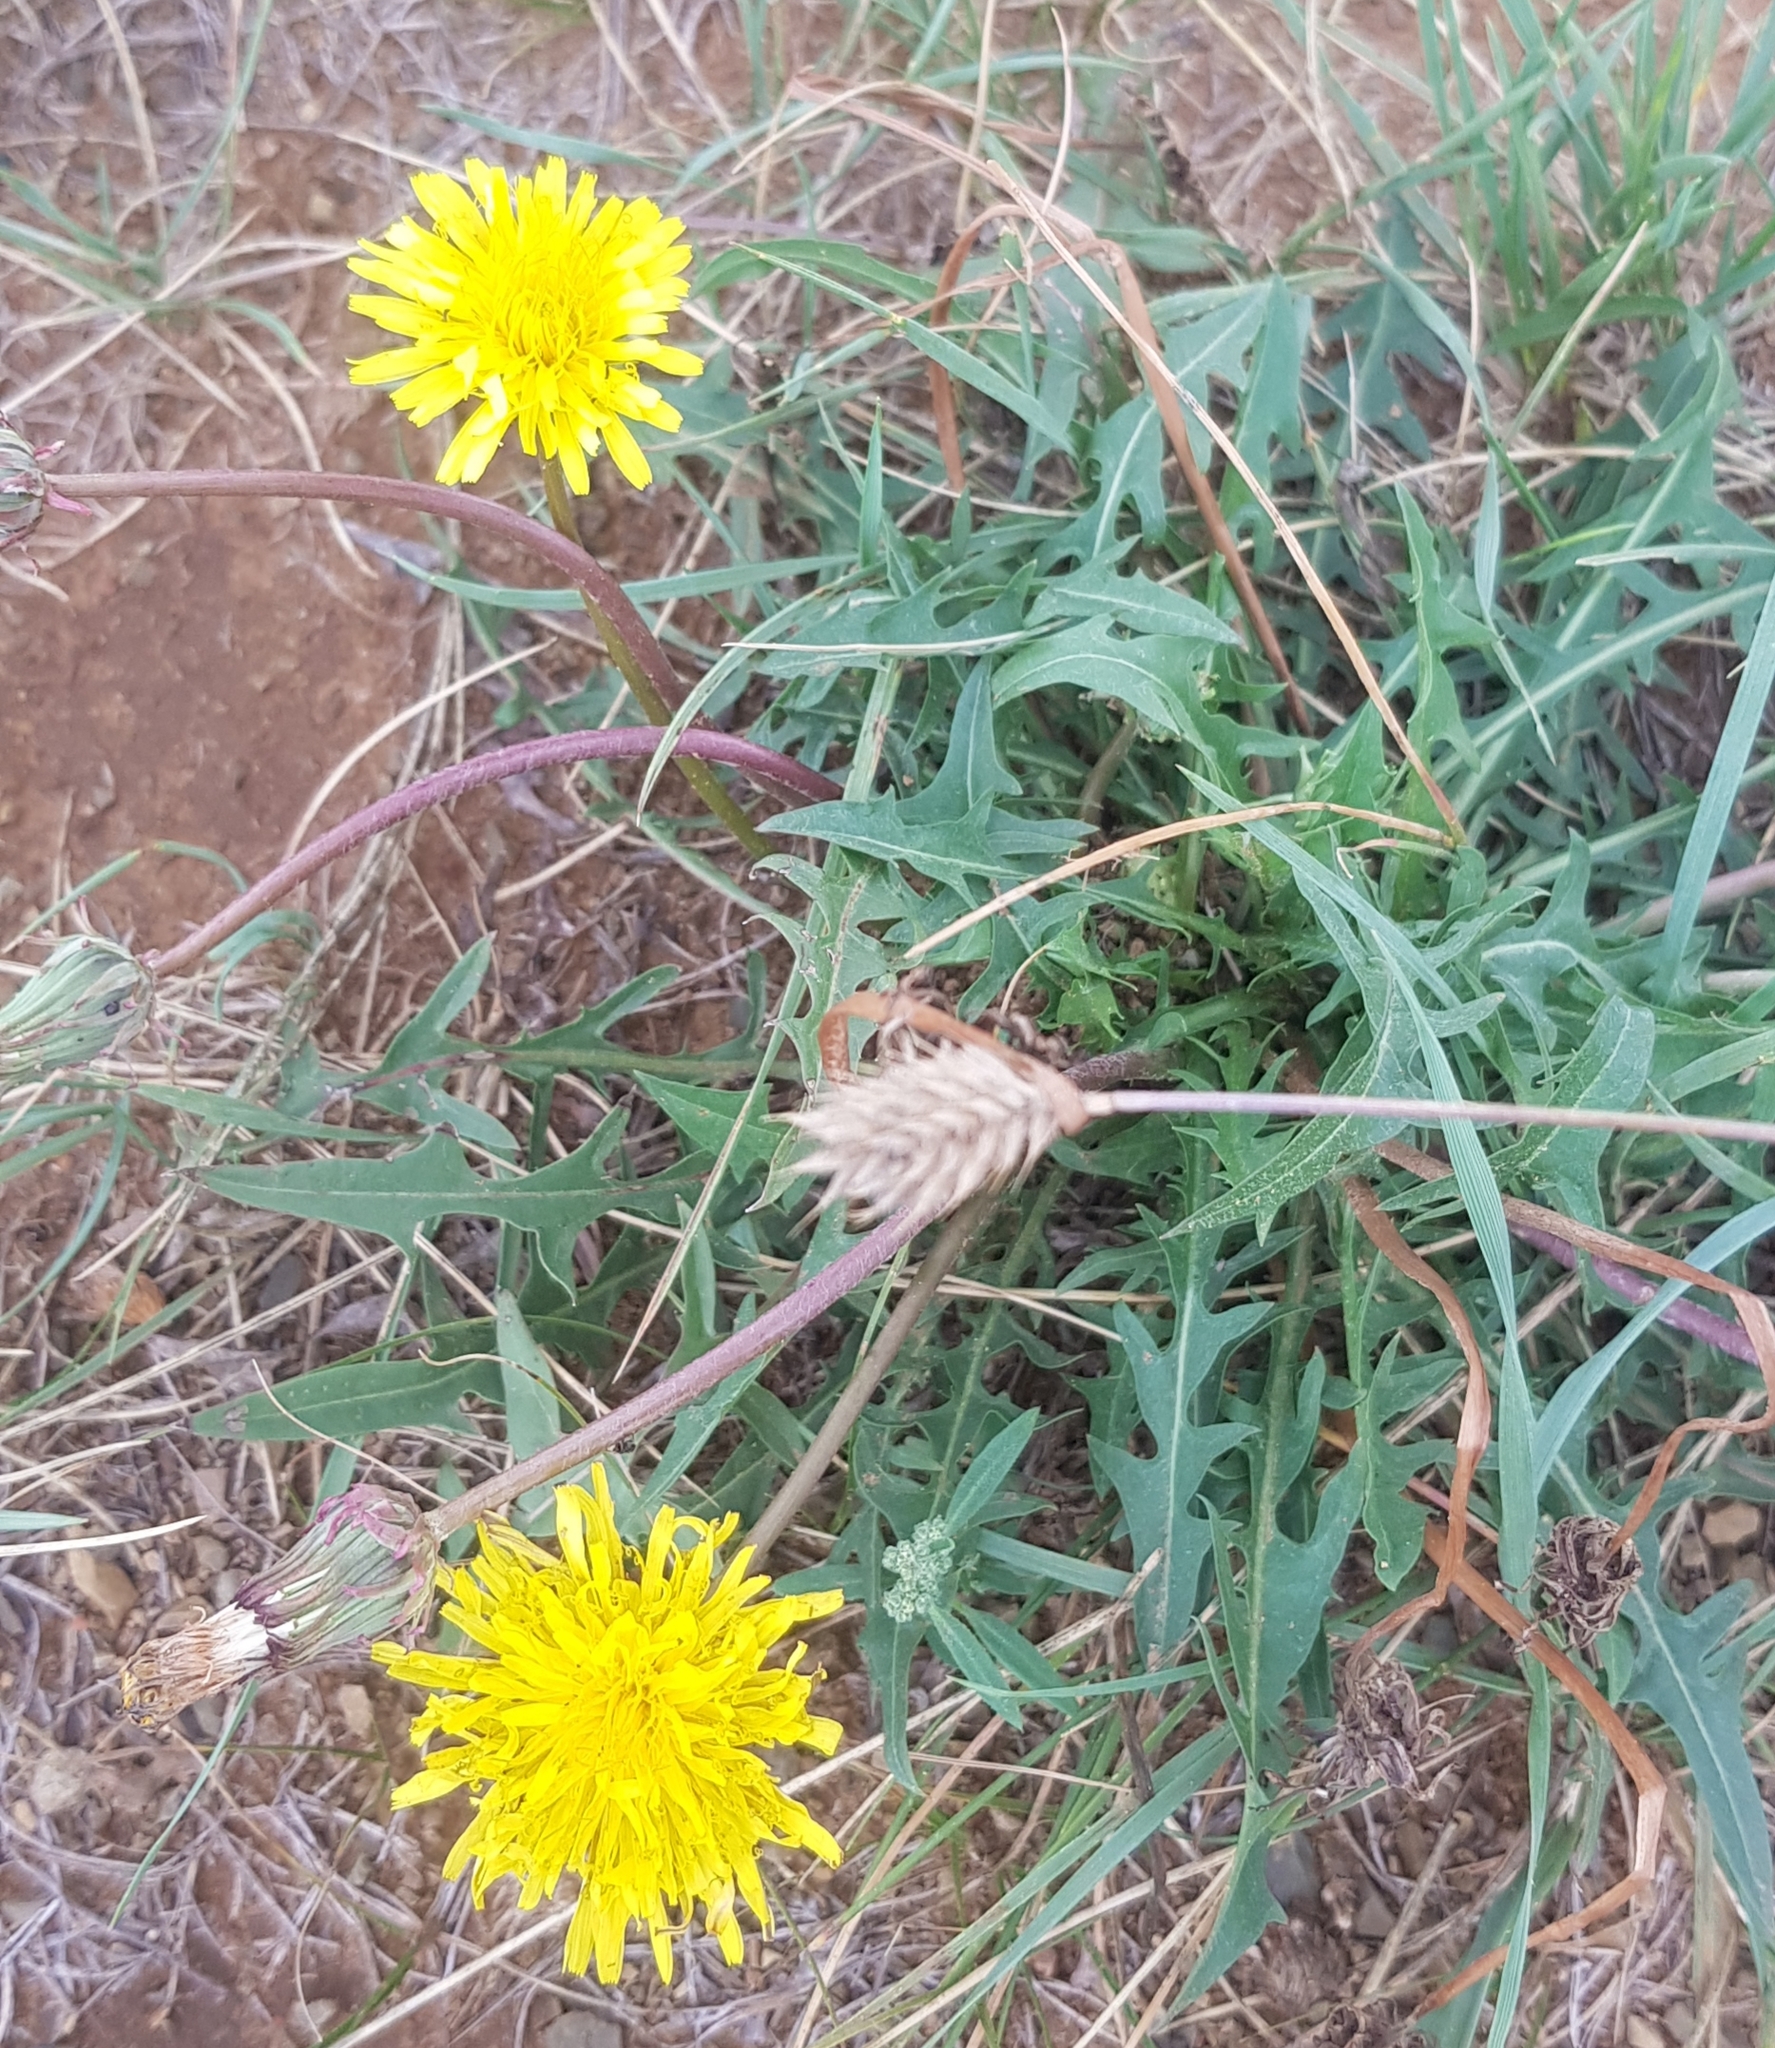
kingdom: Plantae
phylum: Tracheophyta
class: Magnoliopsida
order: Asterales
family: Asteraceae
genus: Taraxacum
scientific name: Taraxacum officinale
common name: Common dandelion
